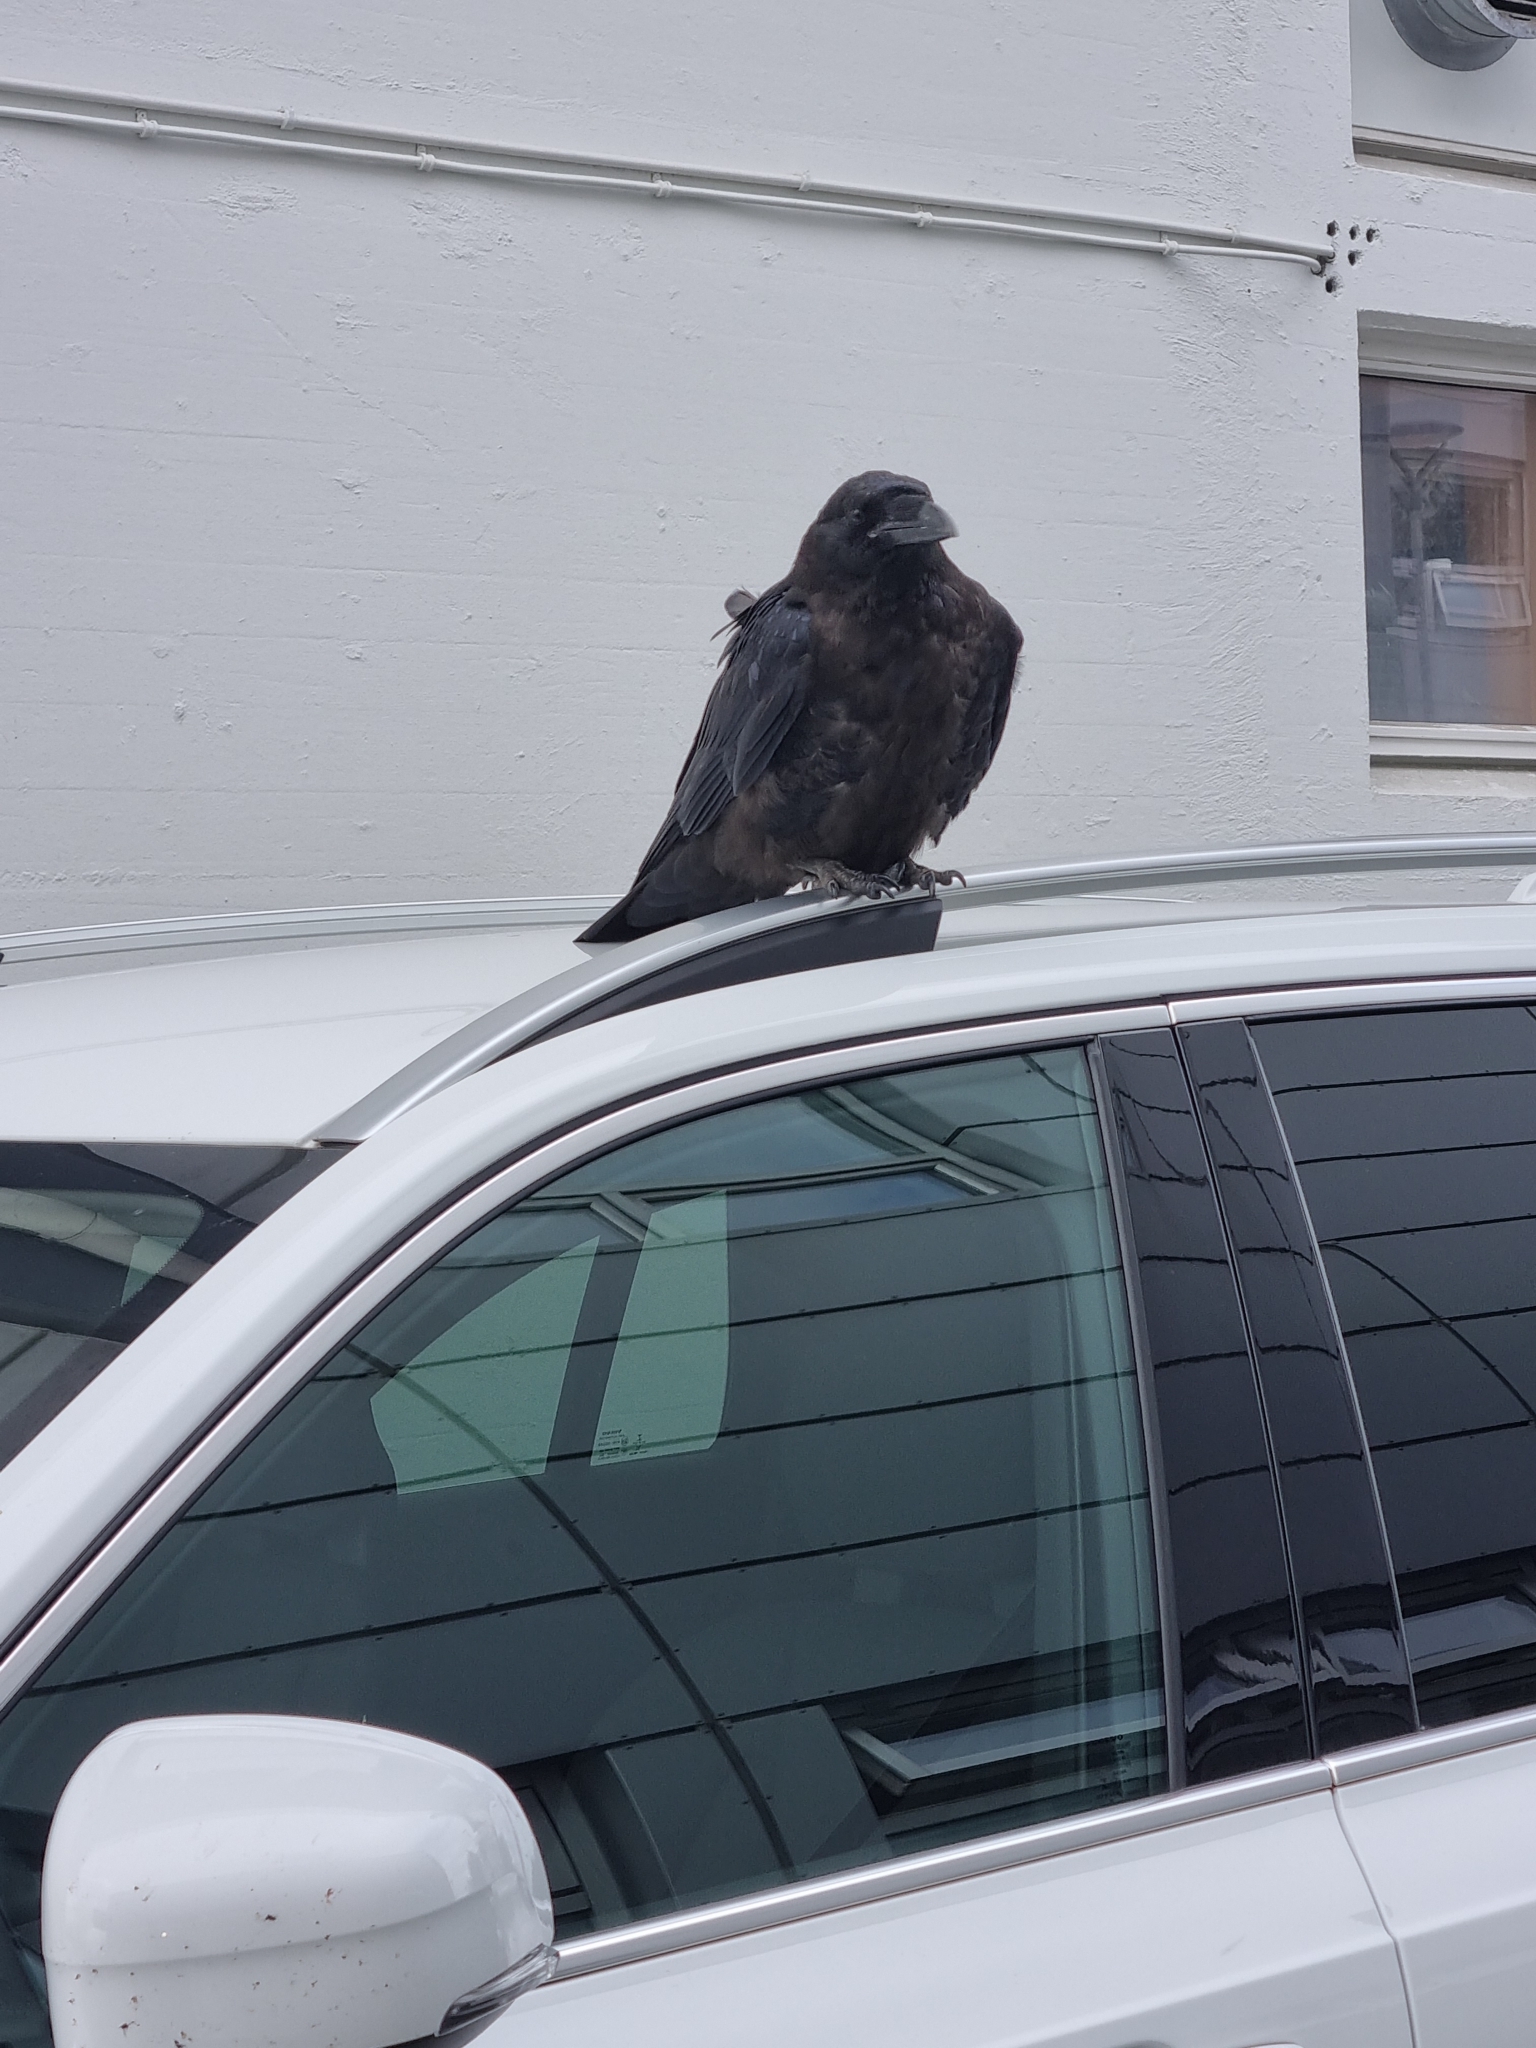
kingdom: Animalia
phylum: Chordata
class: Aves
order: Passeriformes
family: Corvidae
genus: Corvus
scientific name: Corvus corax
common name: Common raven
